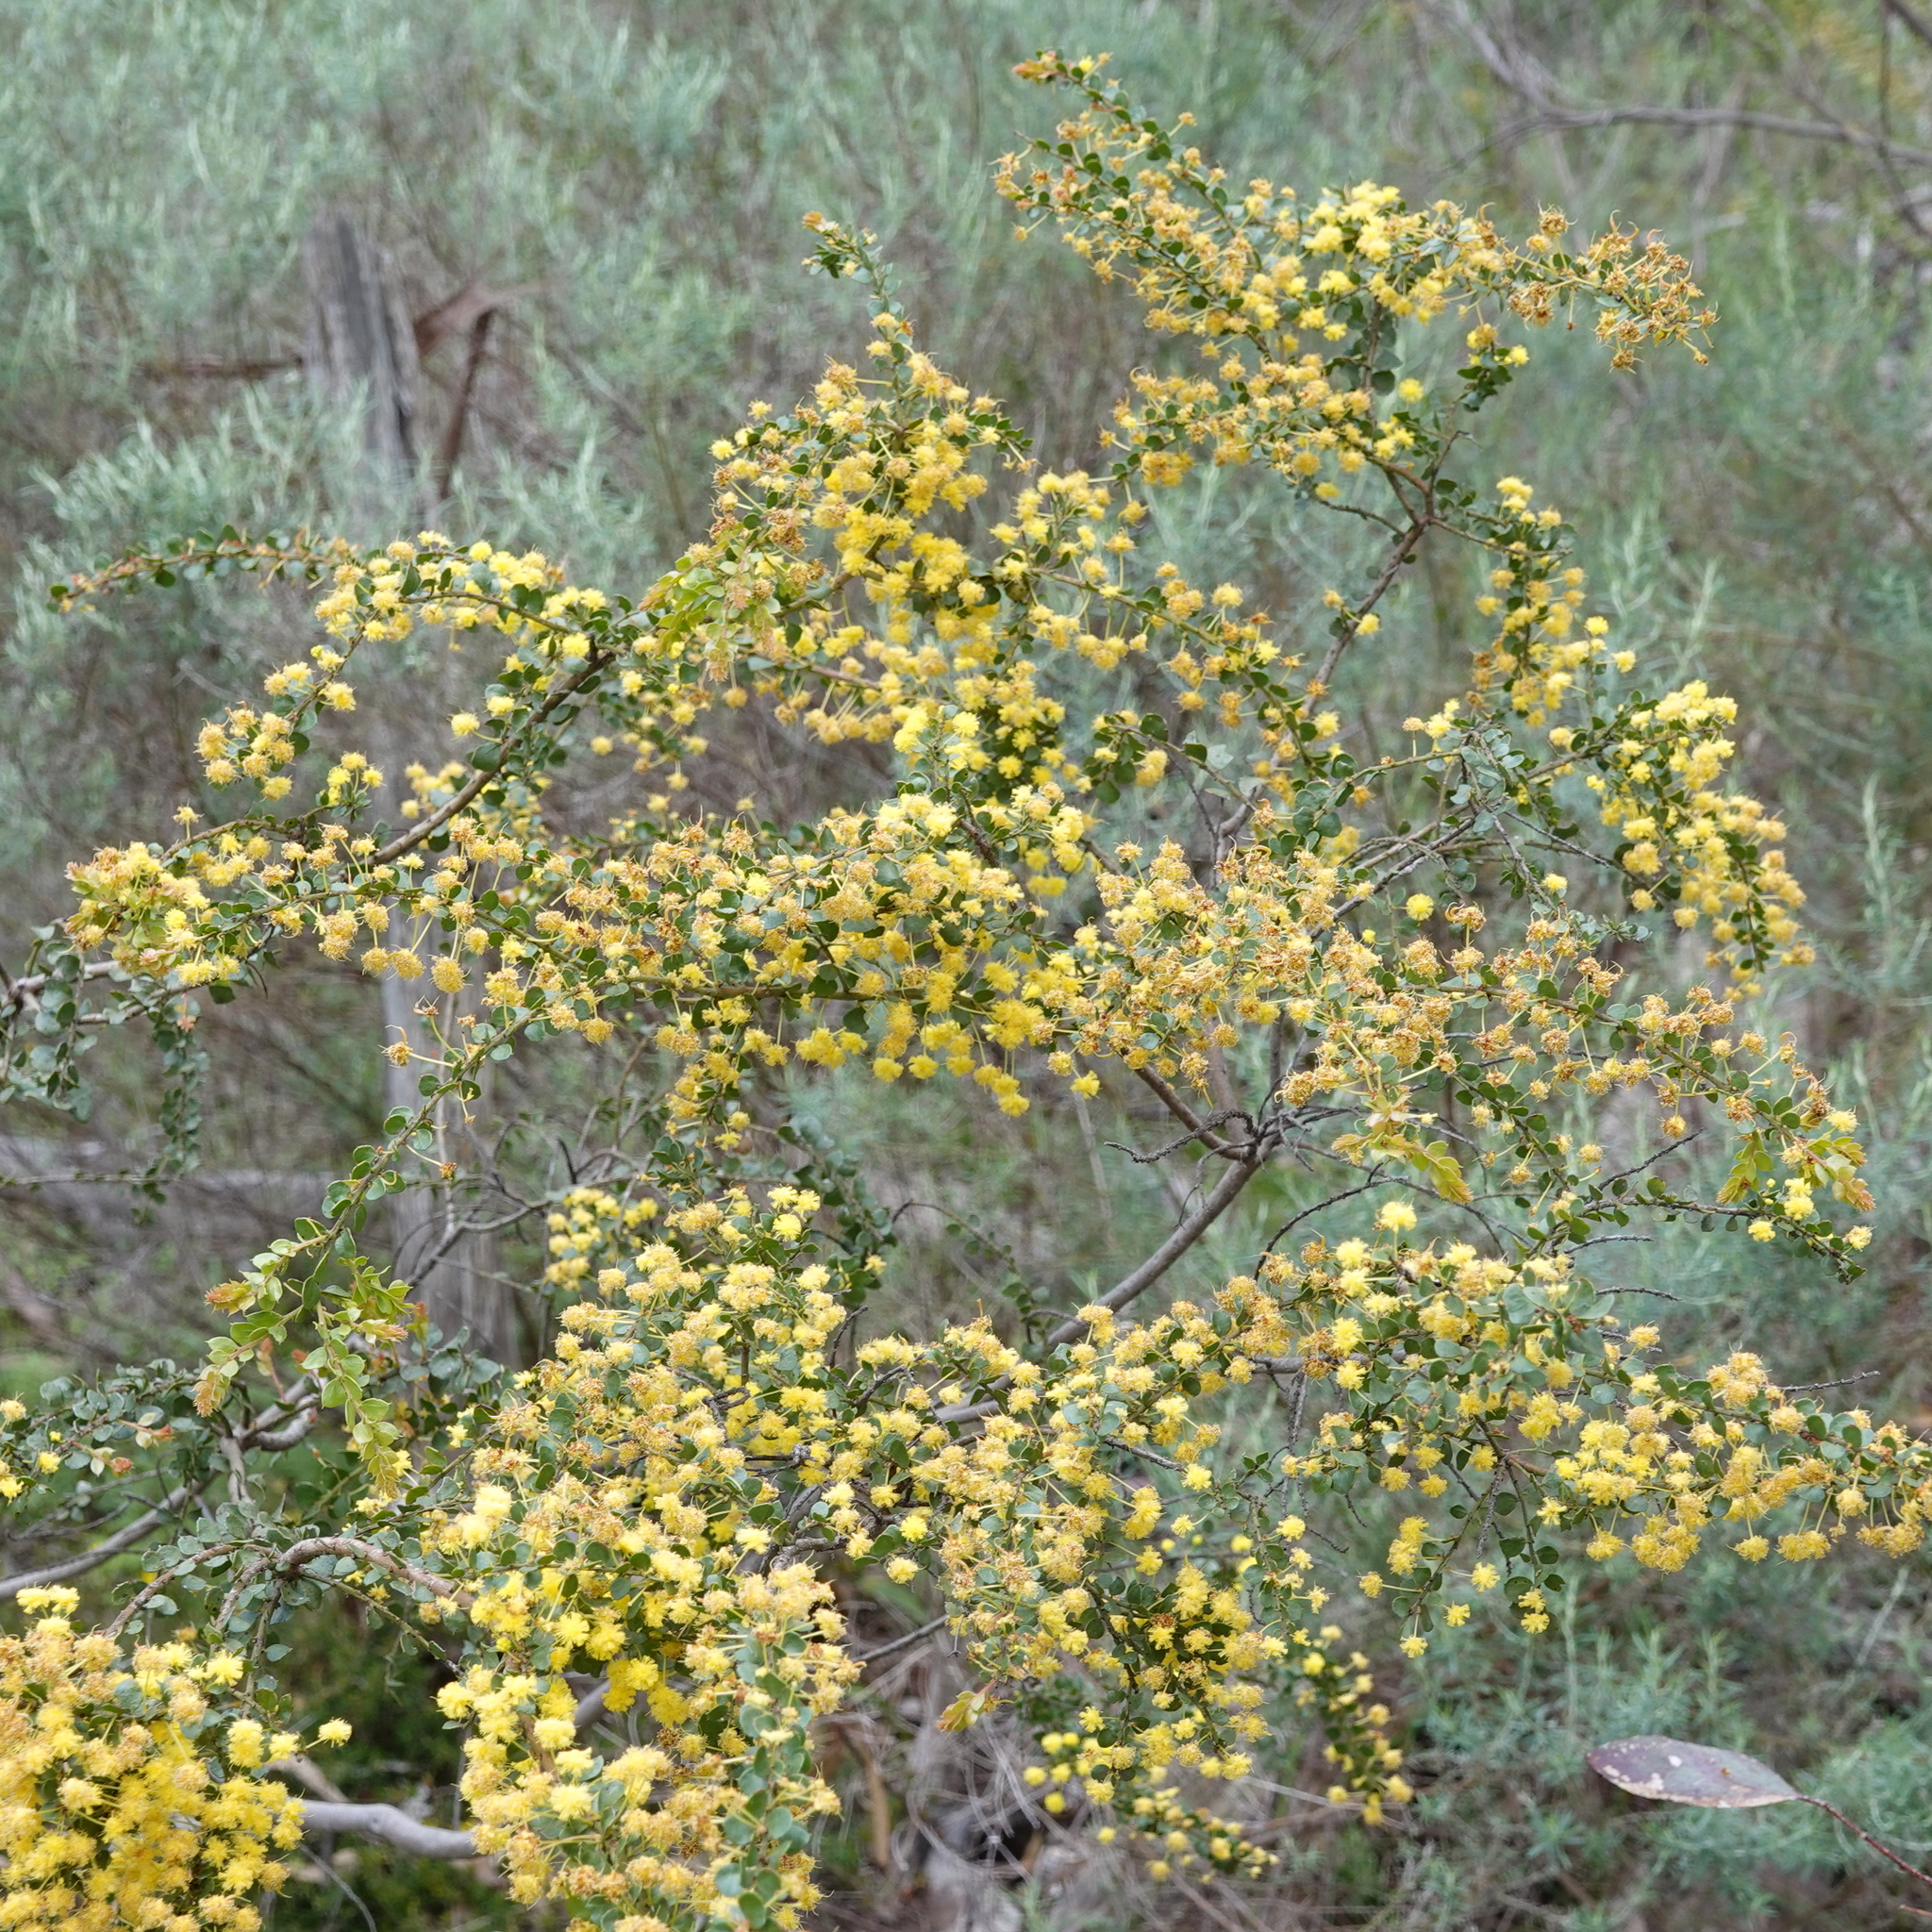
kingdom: Plantae
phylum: Tracheophyta
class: Magnoliopsida
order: Fabales
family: Fabaceae
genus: Acacia
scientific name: Acacia acinacea
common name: Gold-dust acacia
